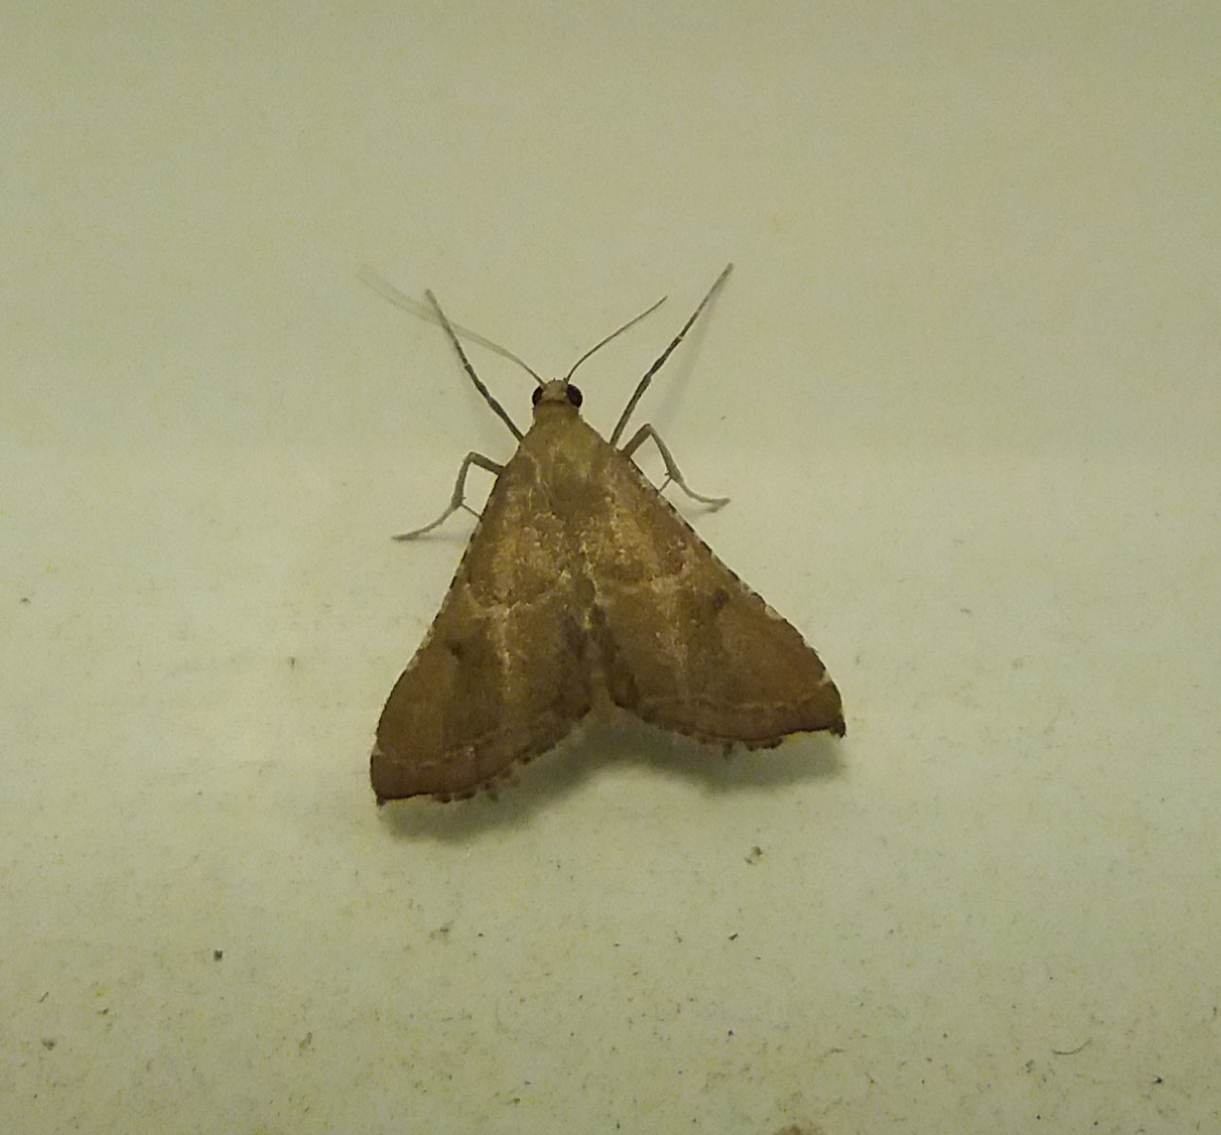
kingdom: Animalia
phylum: Arthropoda
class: Insecta
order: Lepidoptera
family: Pyralidae
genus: Endotricha
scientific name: Endotricha flammealis
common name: Rosy tabby
